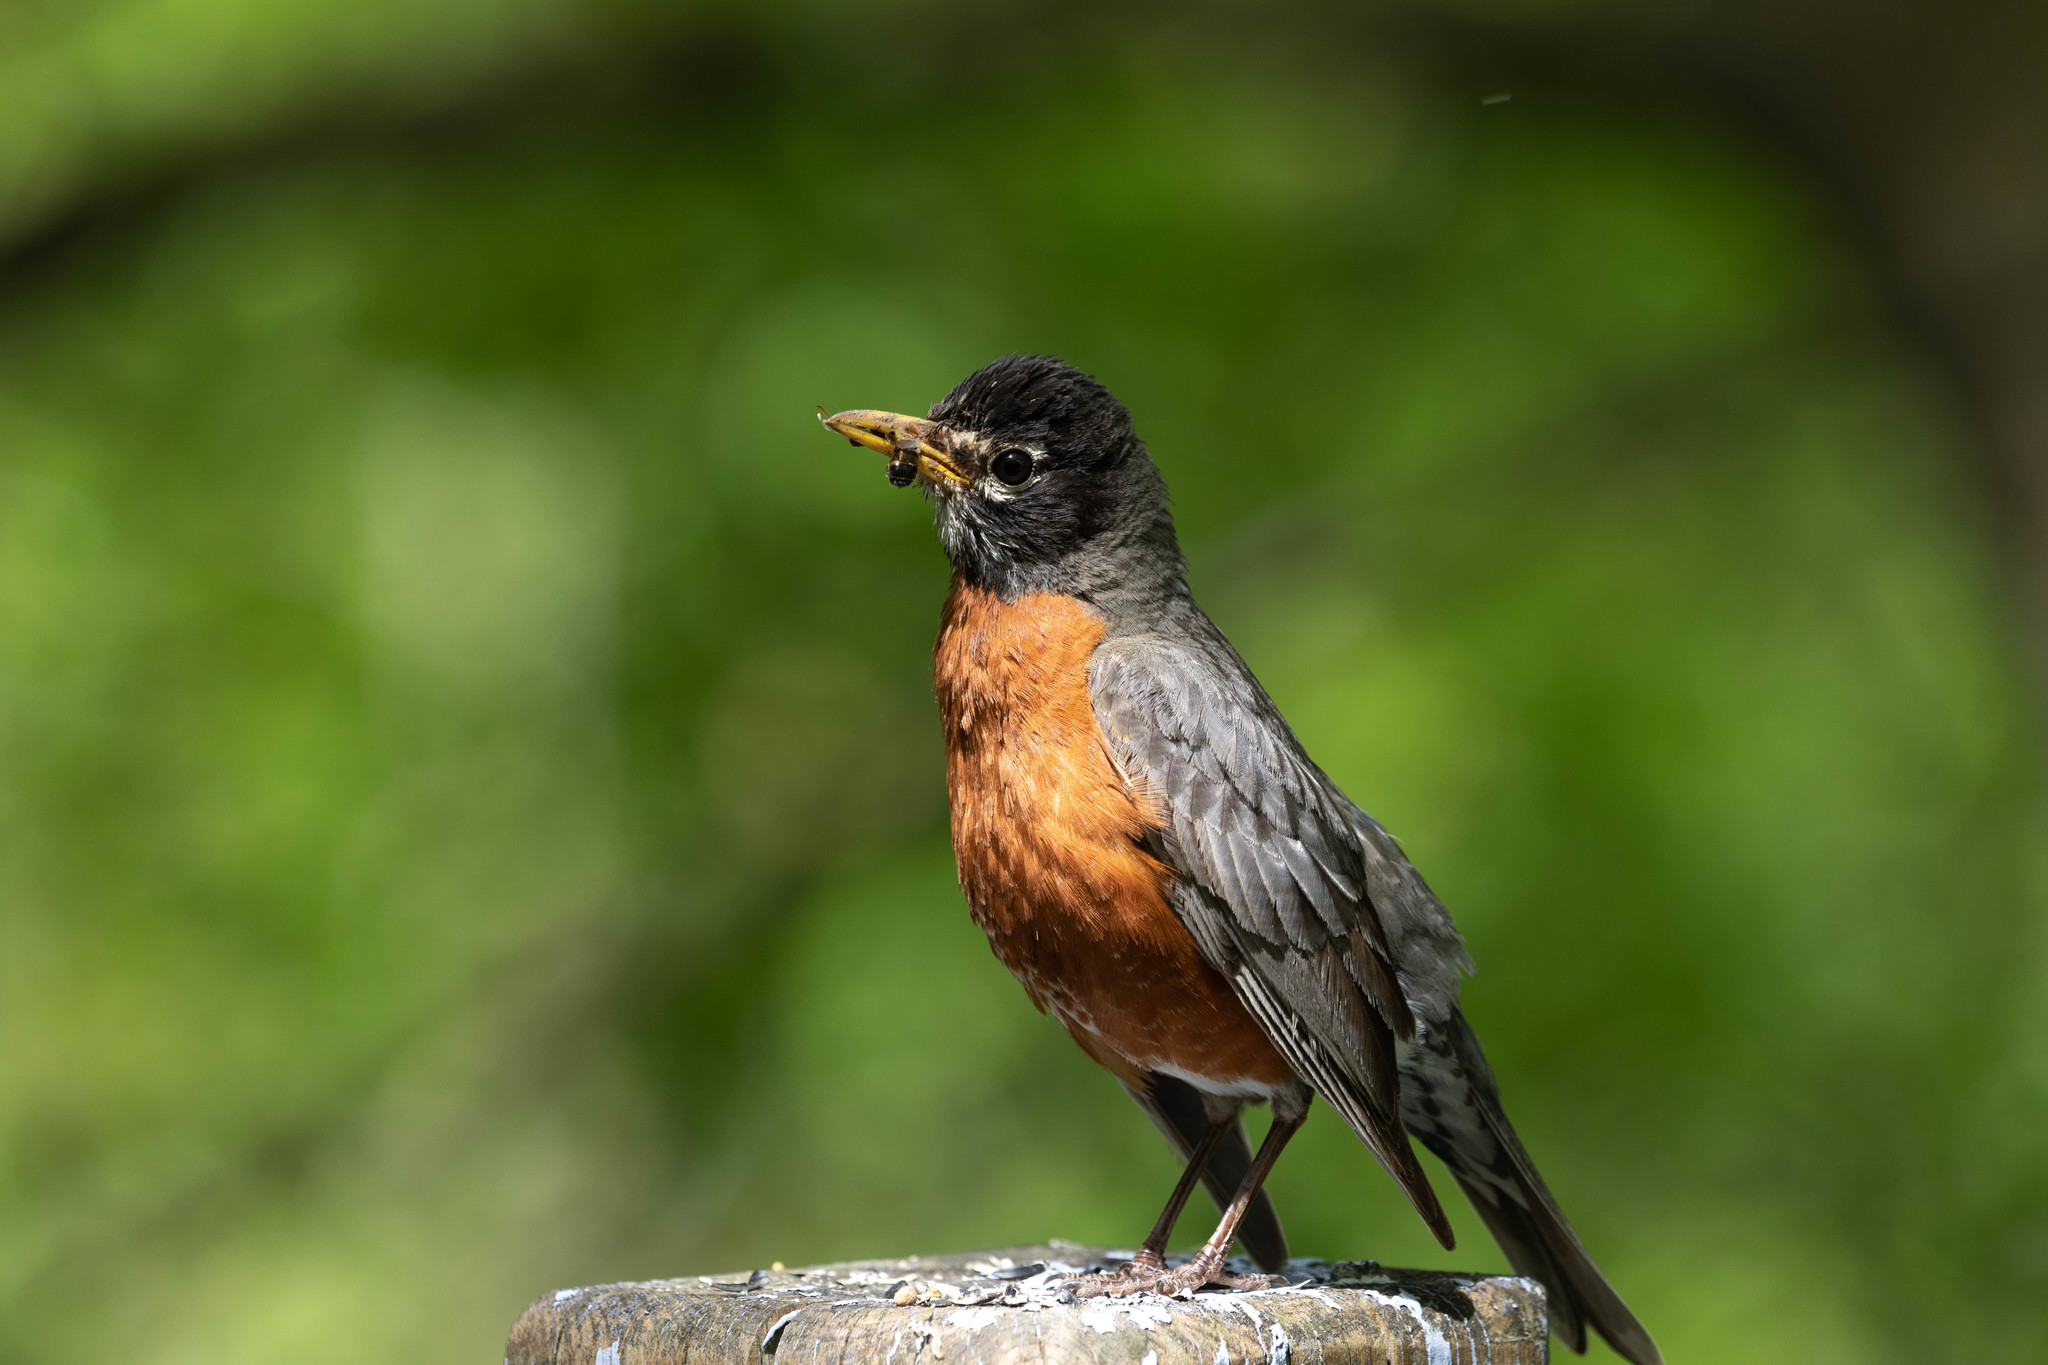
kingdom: Animalia
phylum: Chordata
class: Aves
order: Passeriformes
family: Turdidae
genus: Turdus
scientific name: Turdus migratorius
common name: American robin
